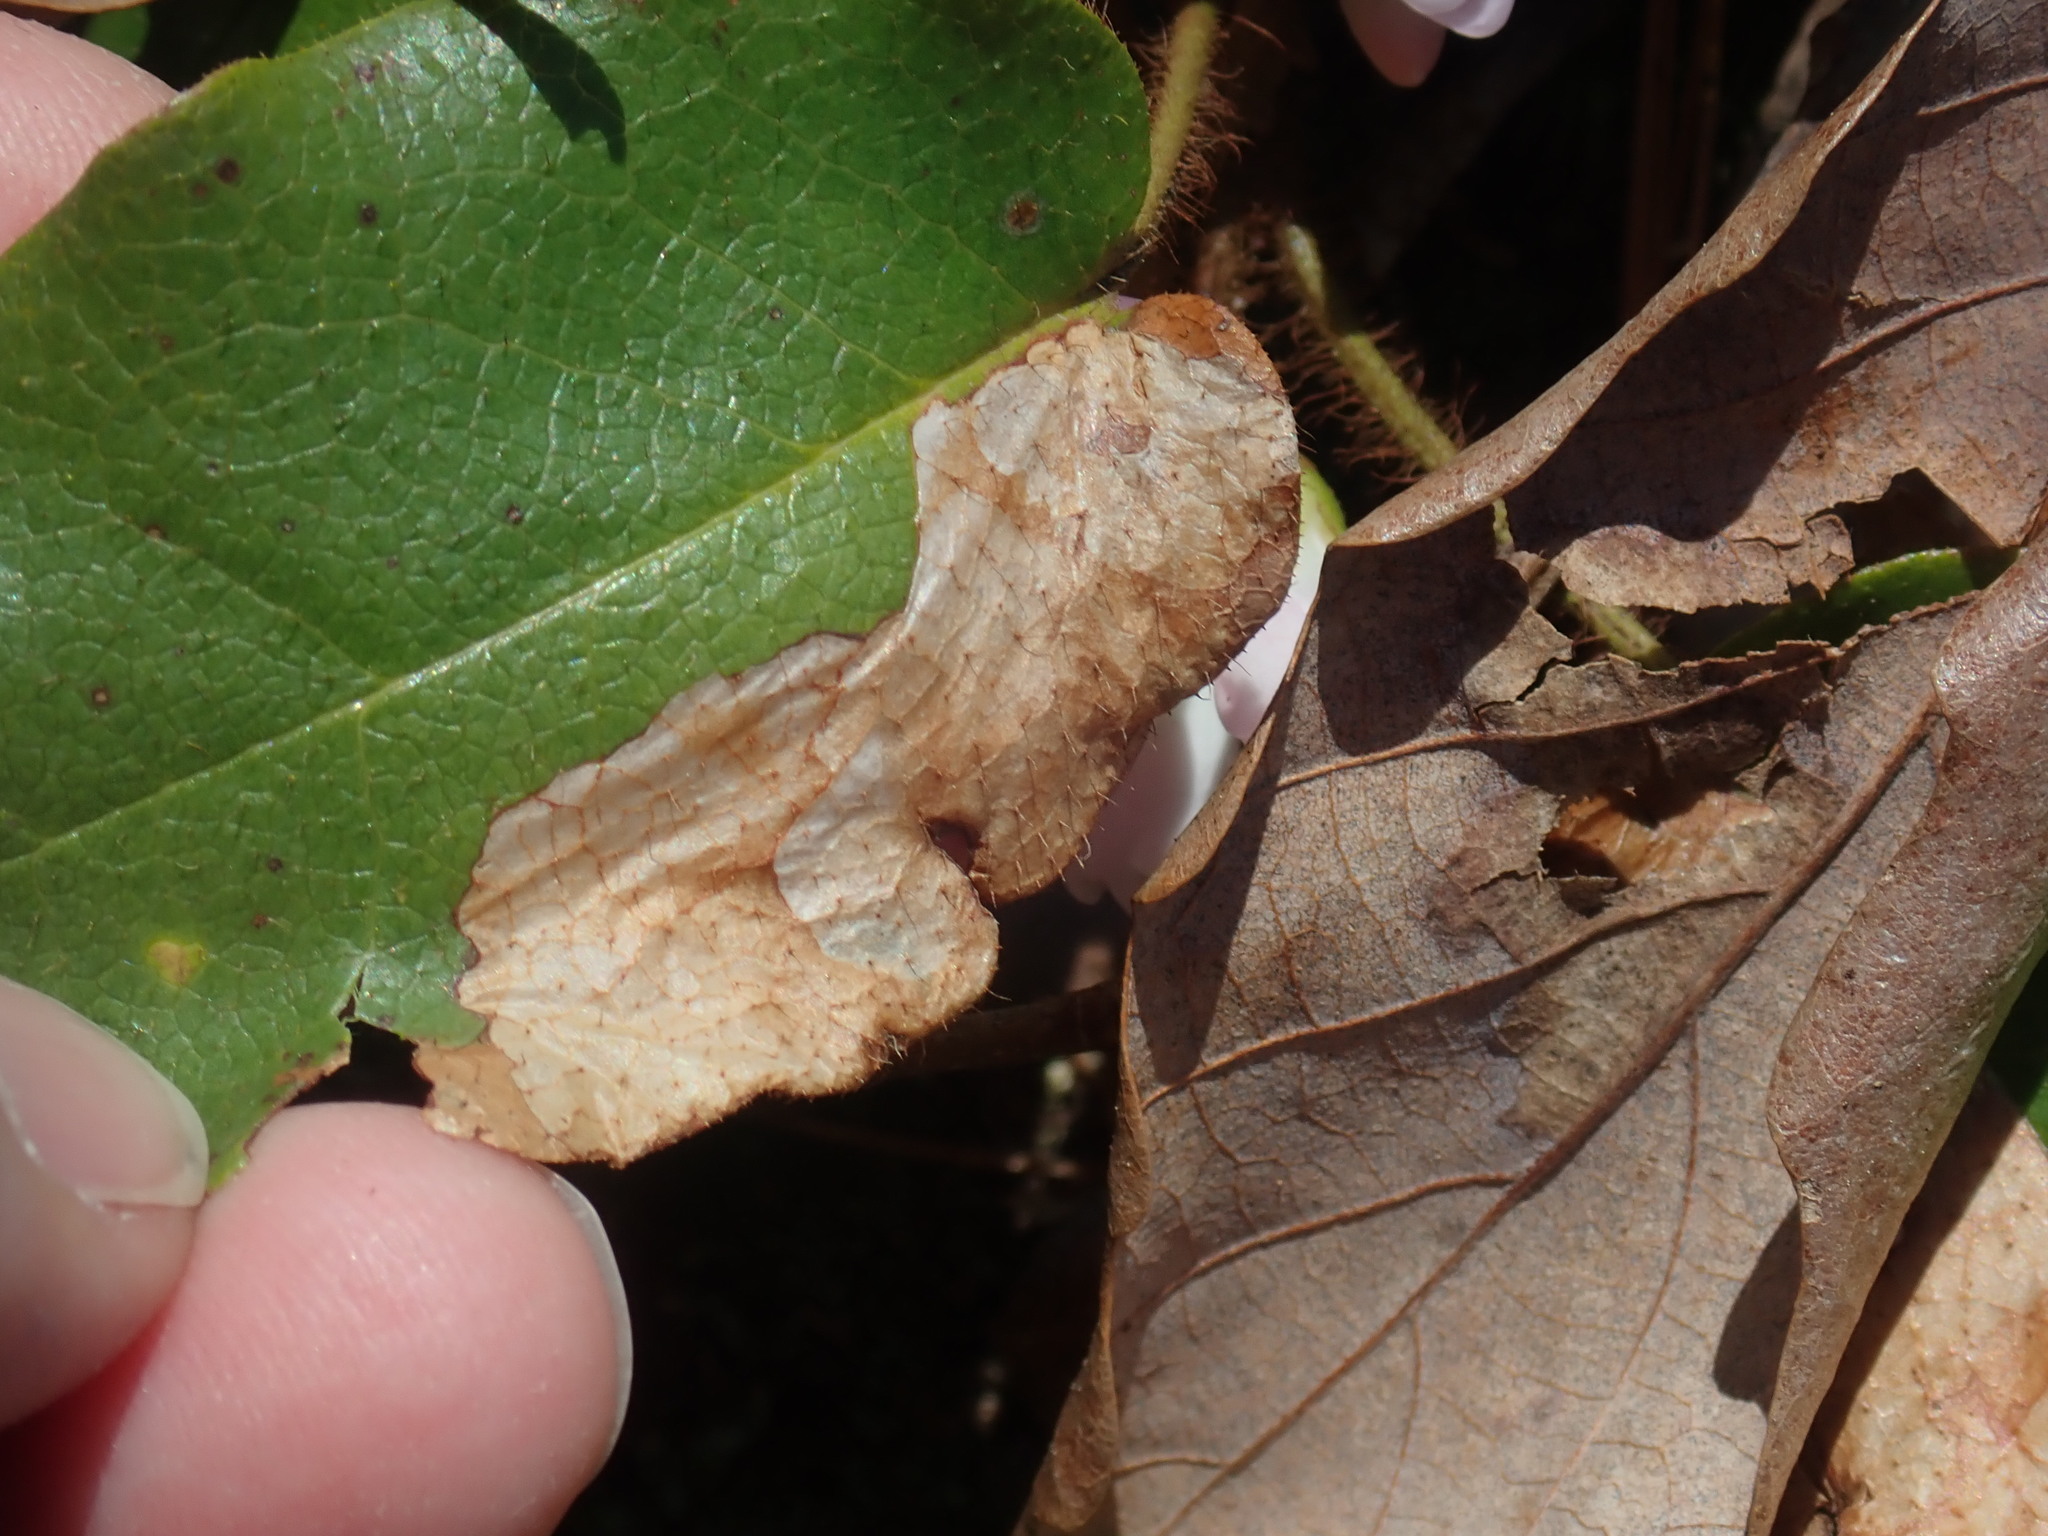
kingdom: Animalia
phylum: Arthropoda
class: Insecta
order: Coleoptera
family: Buprestidae
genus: Brachys
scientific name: Brachys
